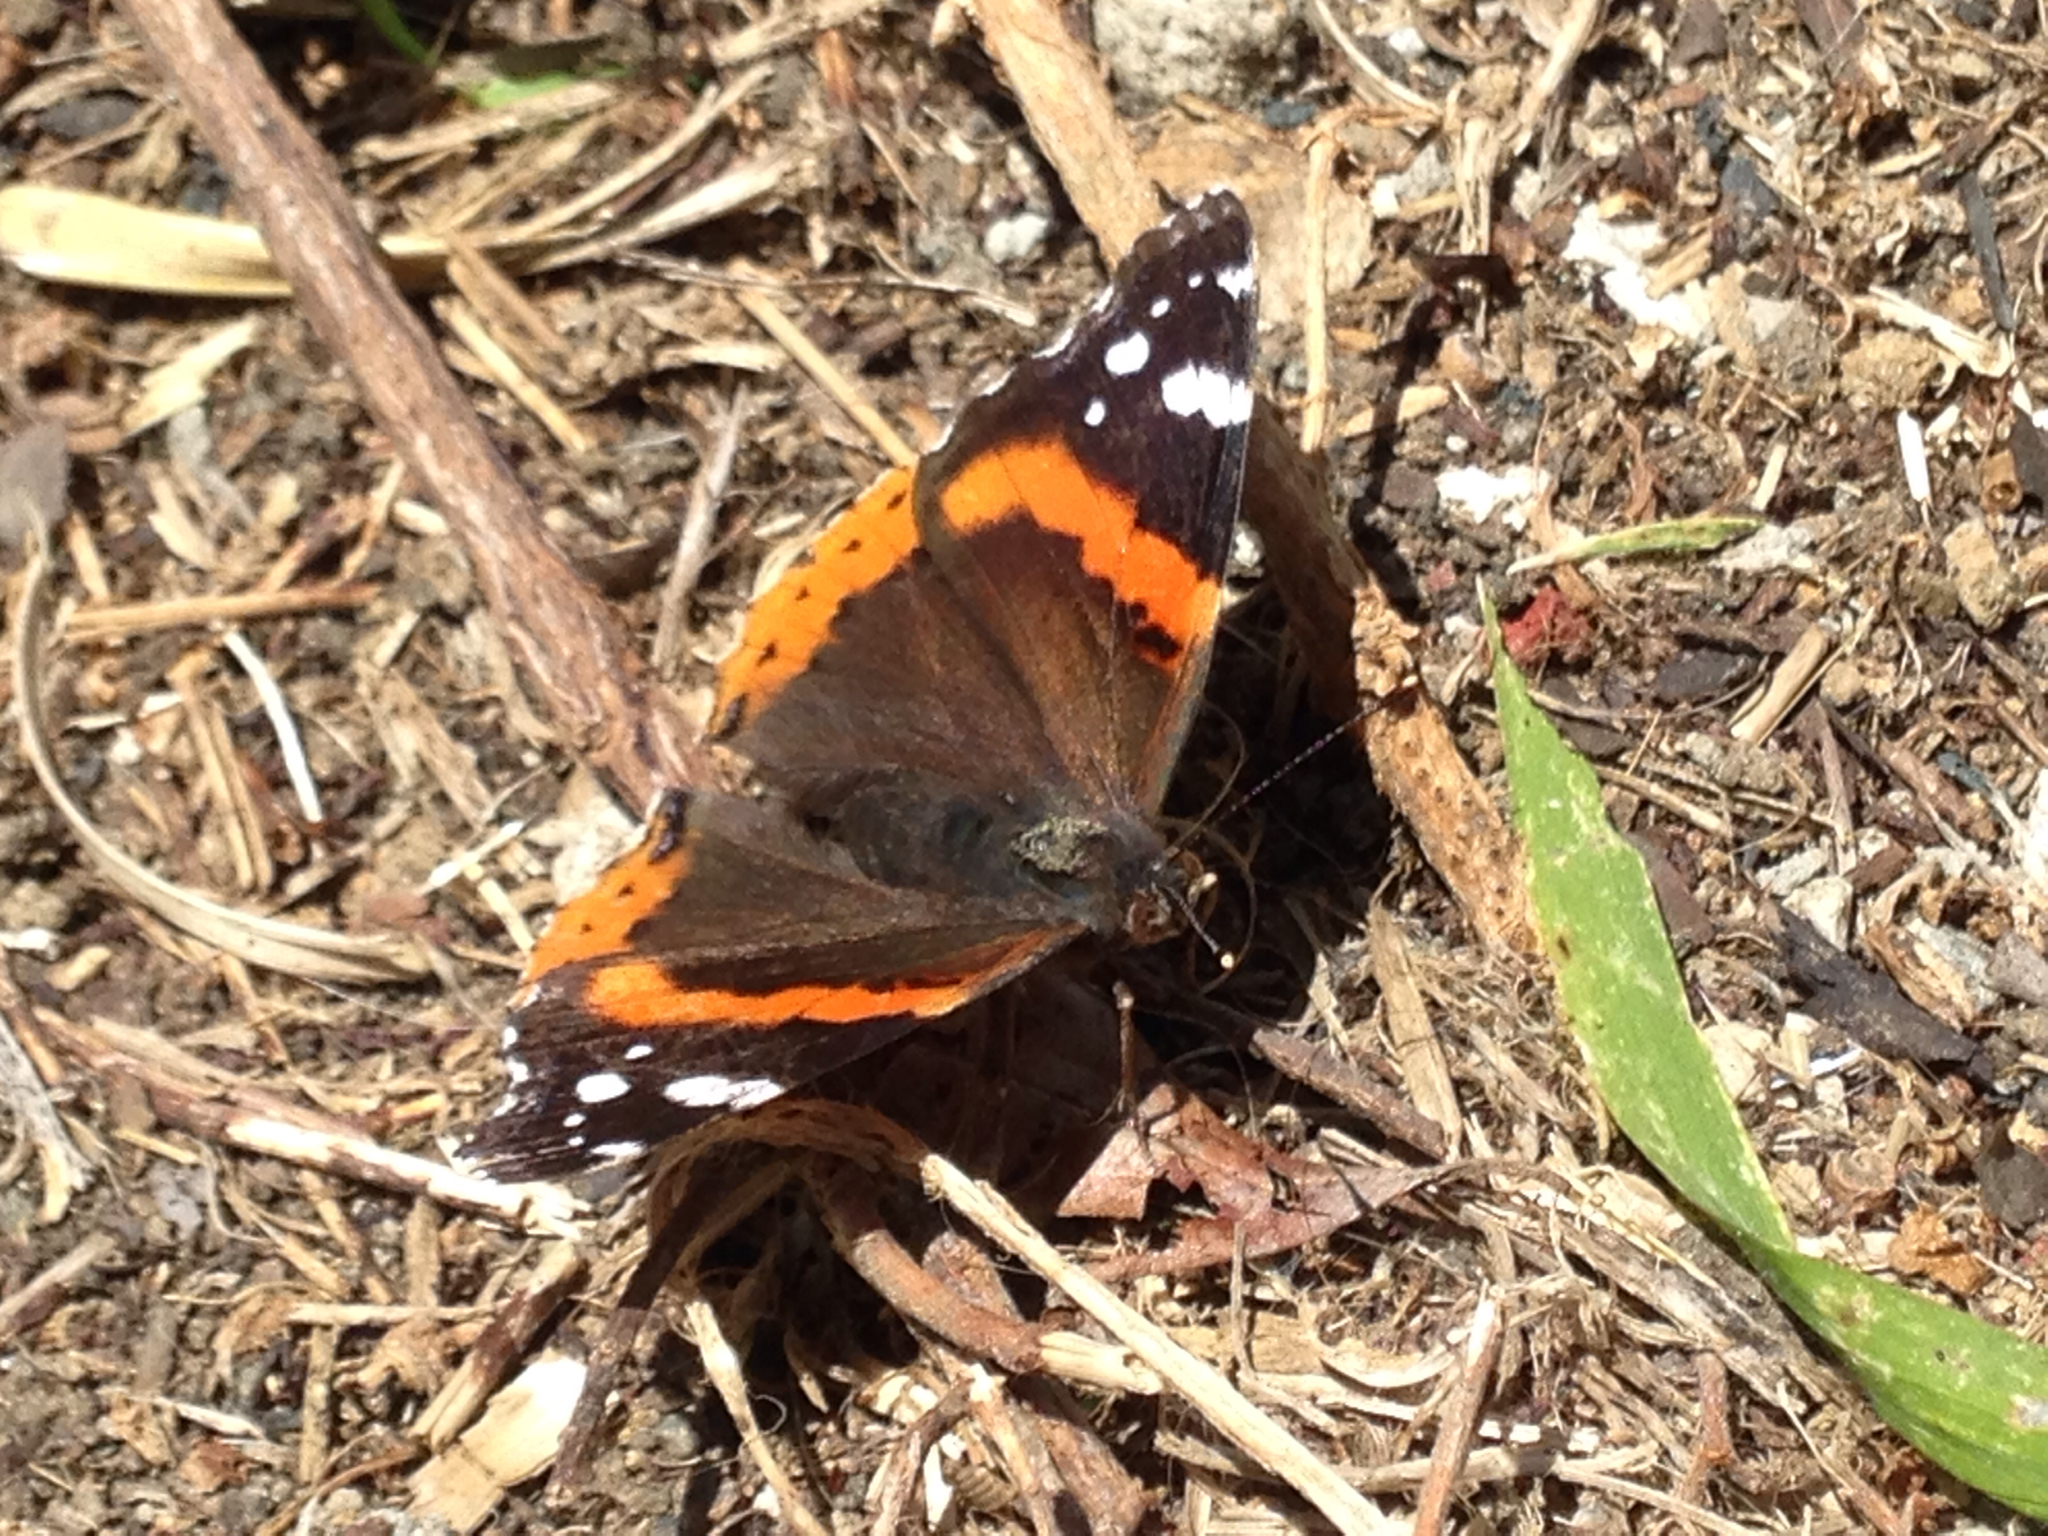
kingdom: Animalia
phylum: Arthropoda
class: Insecta
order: Lepidoptera
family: Nymphalidae
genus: Vanessa
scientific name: Vanessa atalanta
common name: Red admiral
